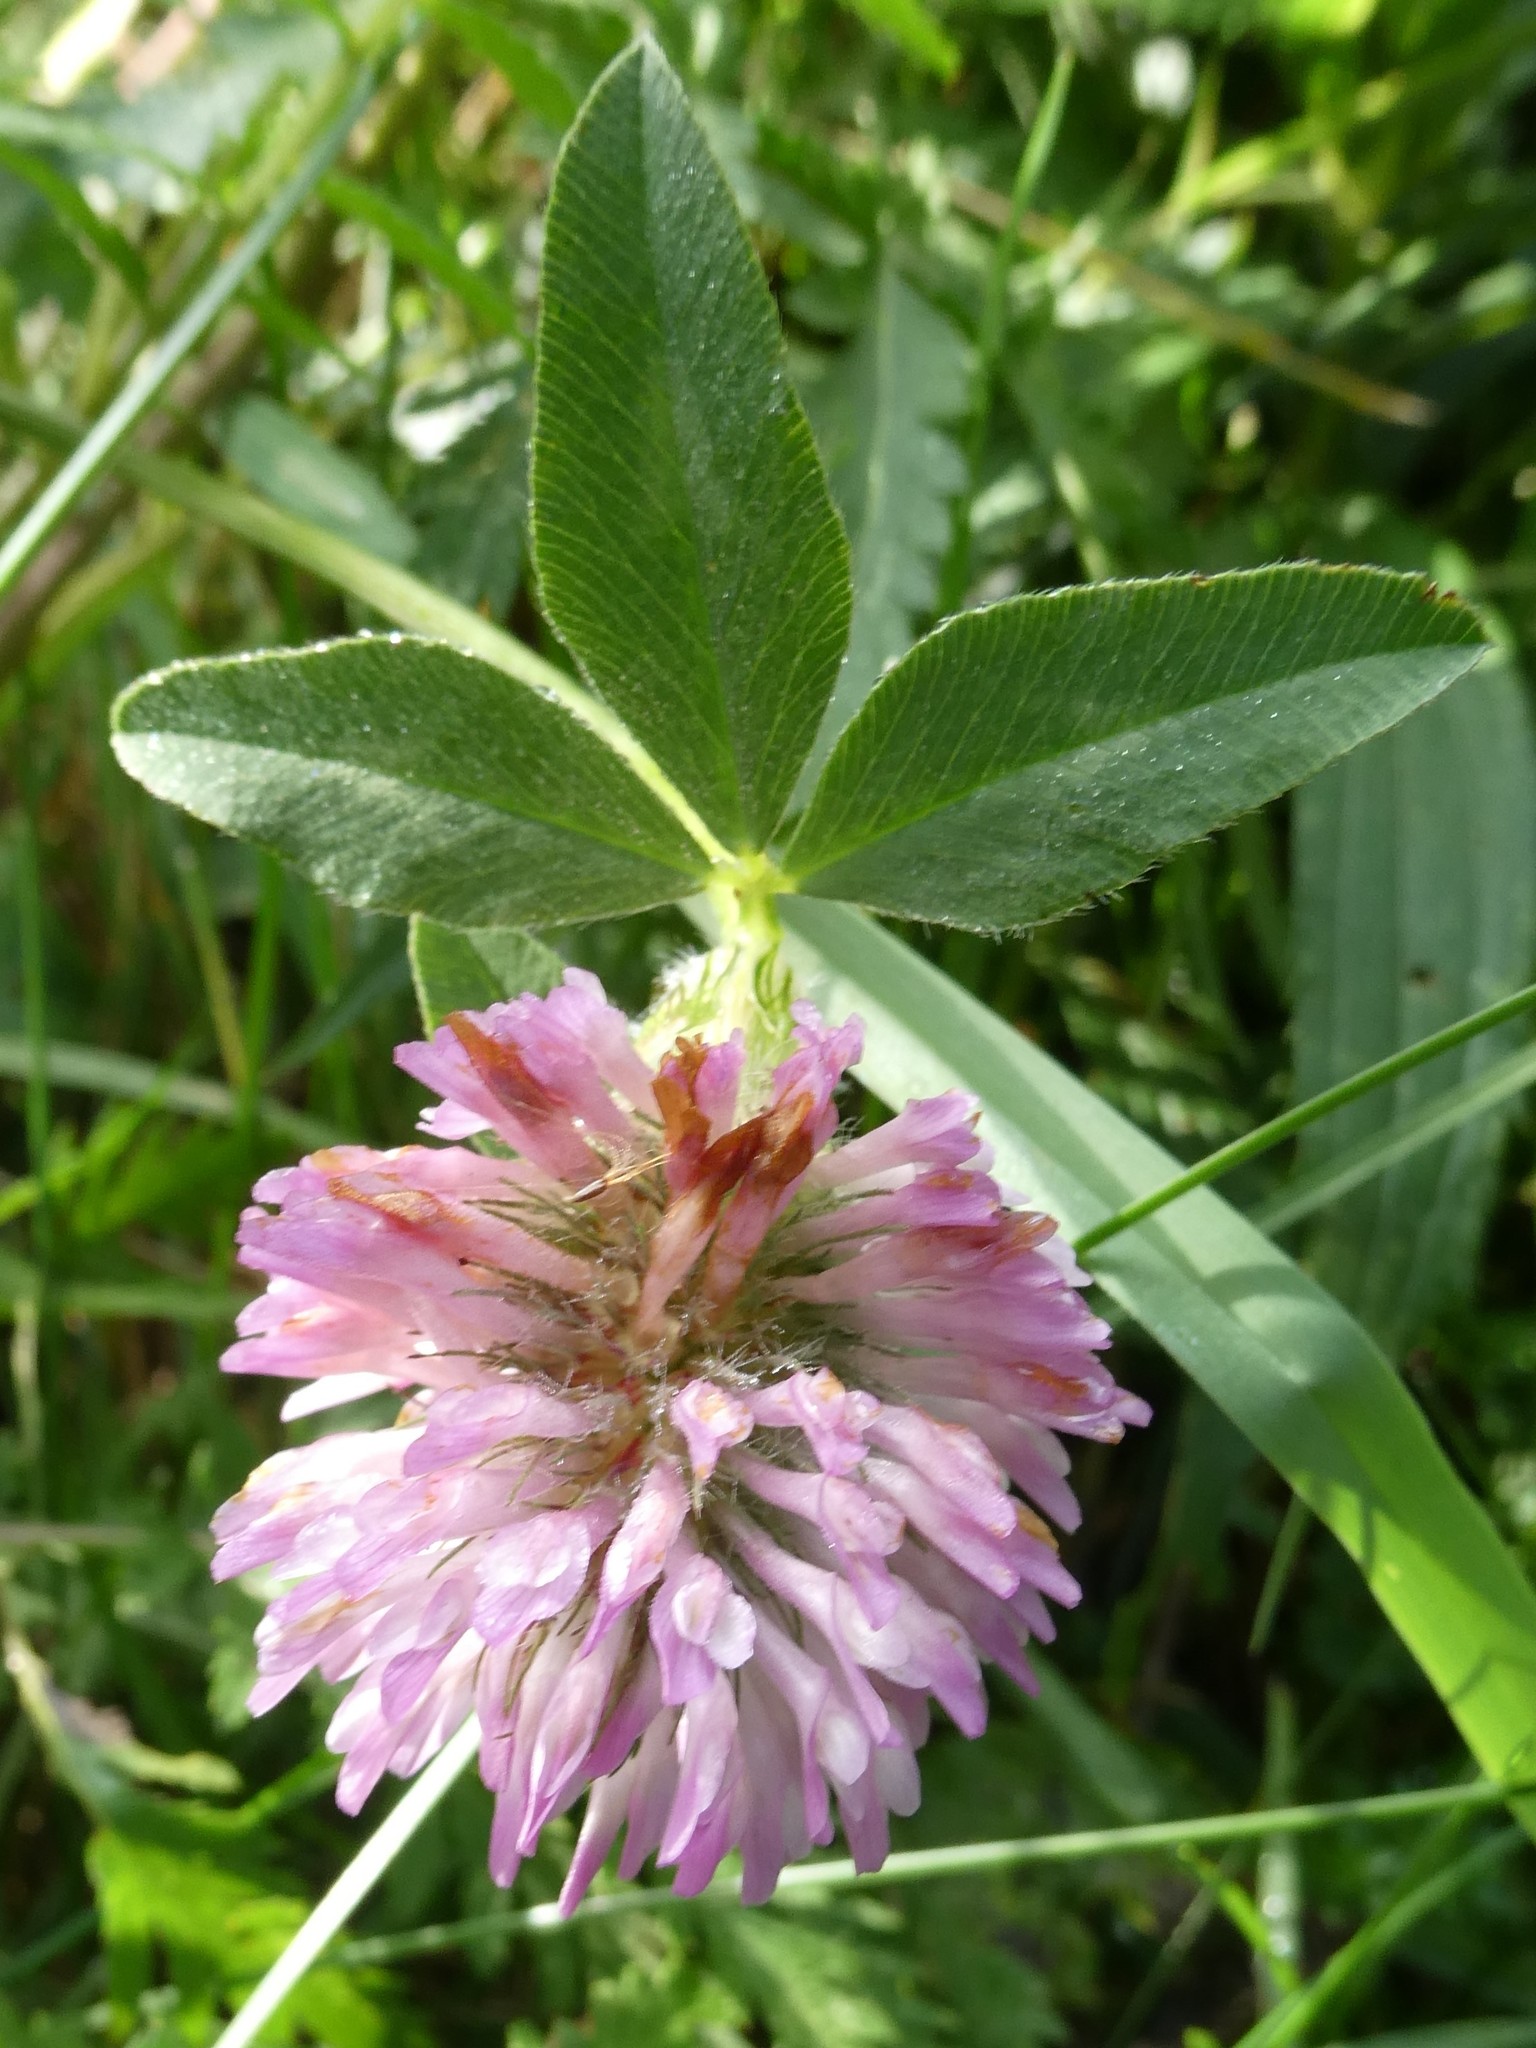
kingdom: Plantae
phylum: Tracheophyta
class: Magnoliopsida
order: Fabales
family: Fabaceae
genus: Trifolium
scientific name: Trifolium pratense
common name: Red clover
